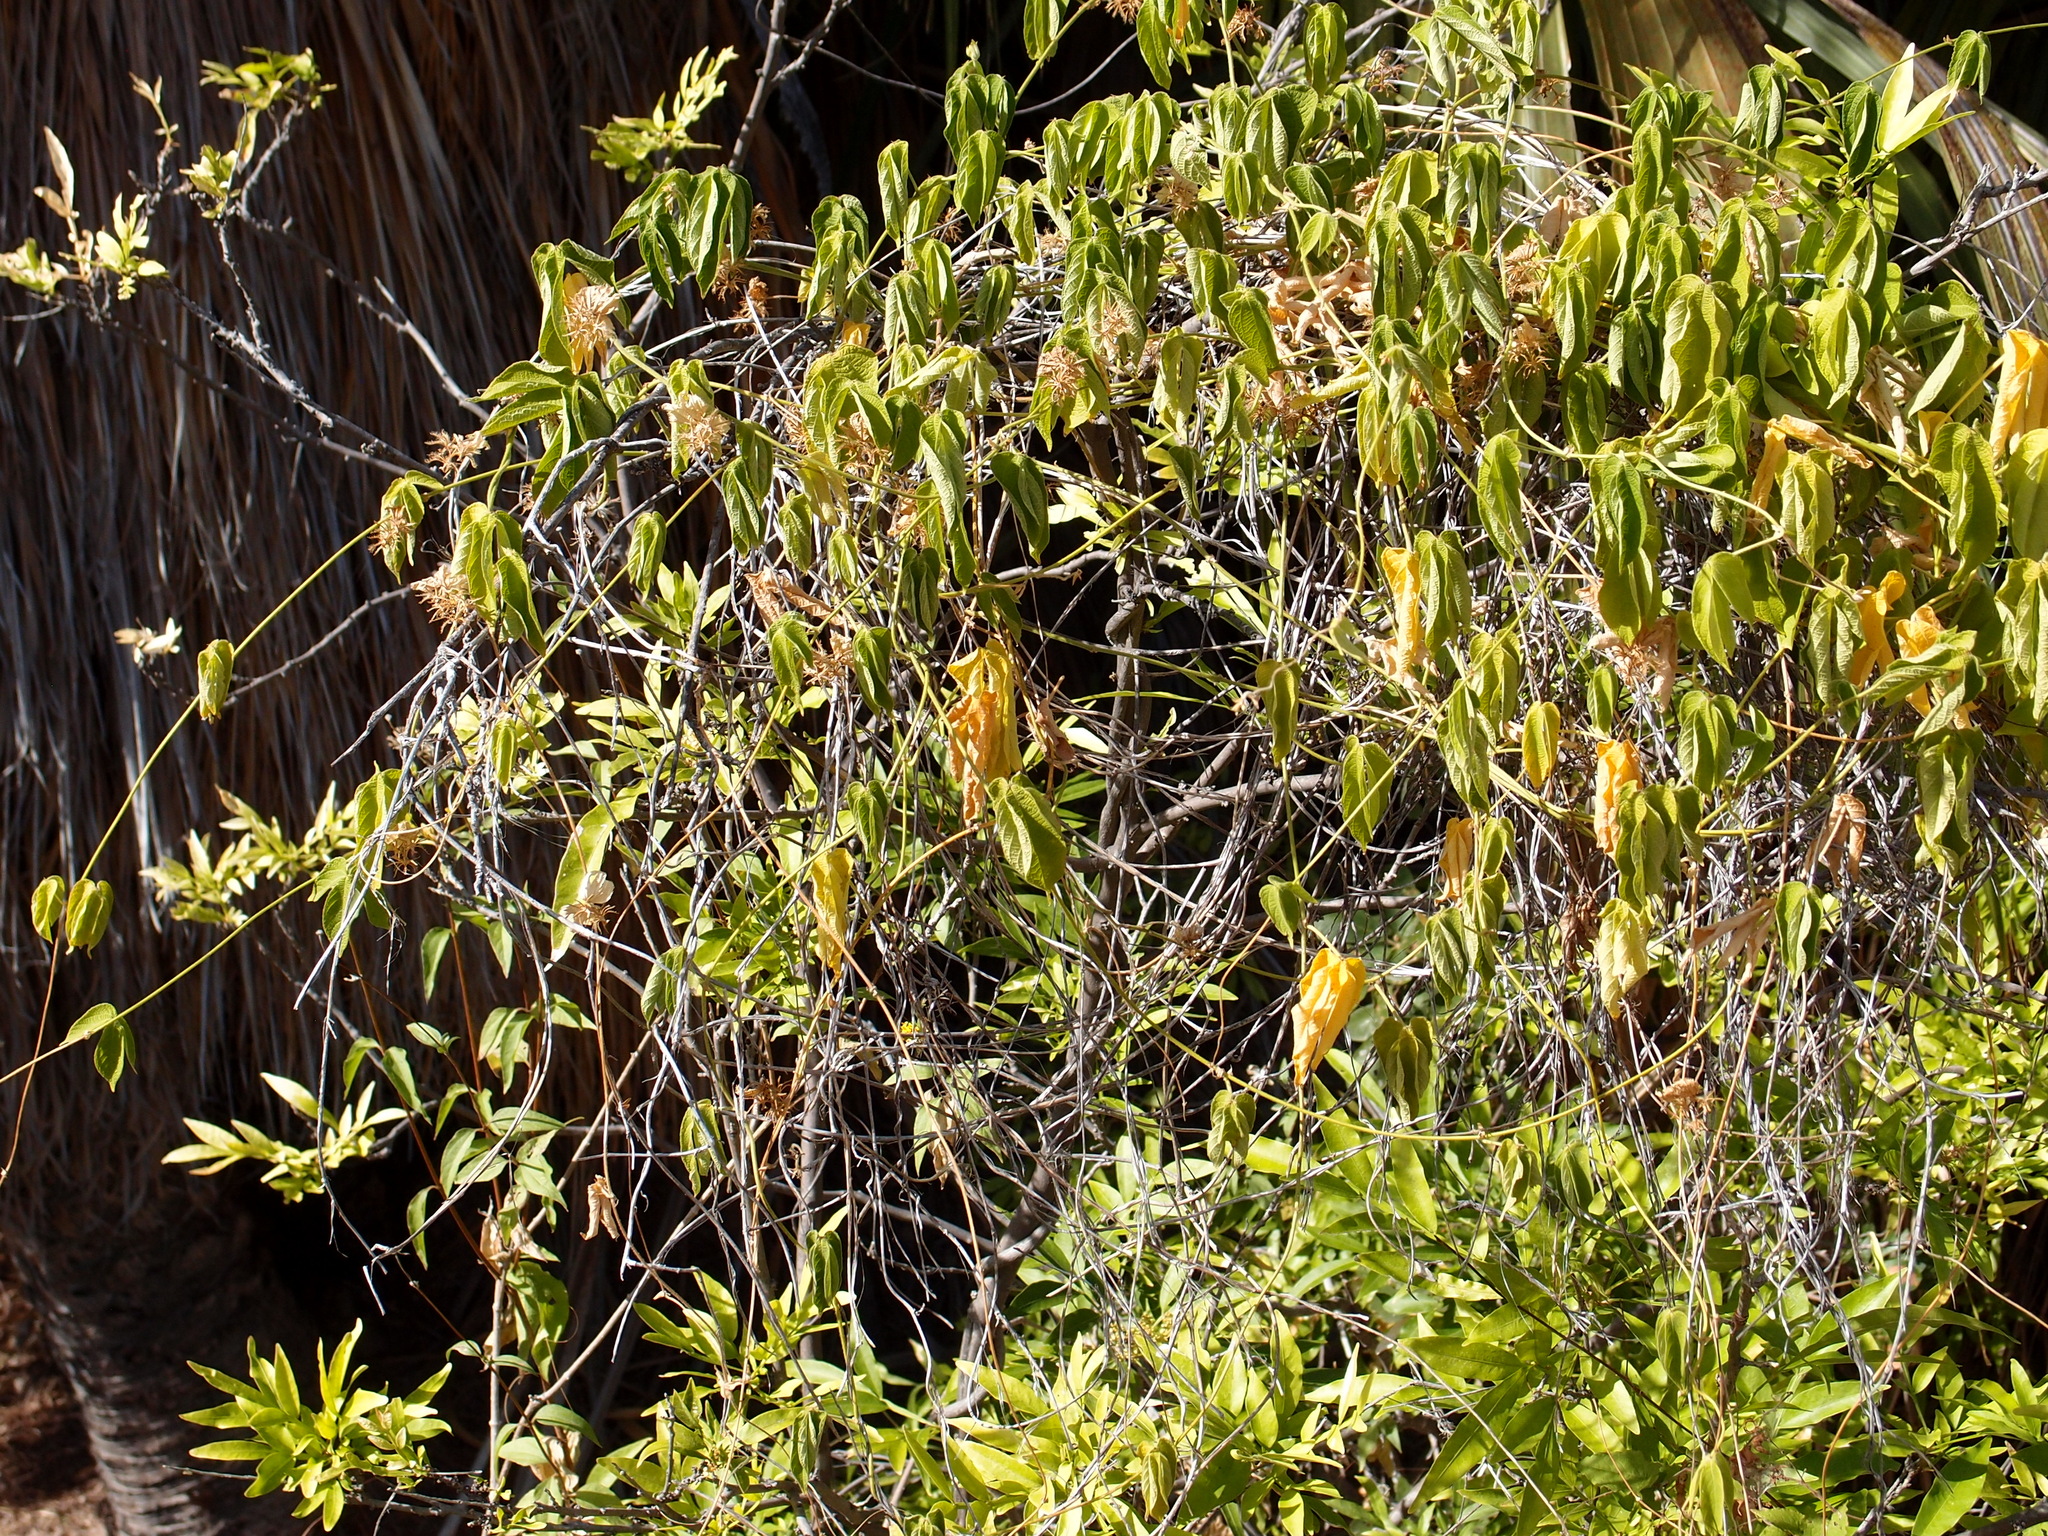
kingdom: Plantae
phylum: Tracheophyta
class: Magnoliopsida
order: Malpighiales
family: Euphorbiaceae
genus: Dalechampia
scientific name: Dalechampia scandens
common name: Spurgecreeper
